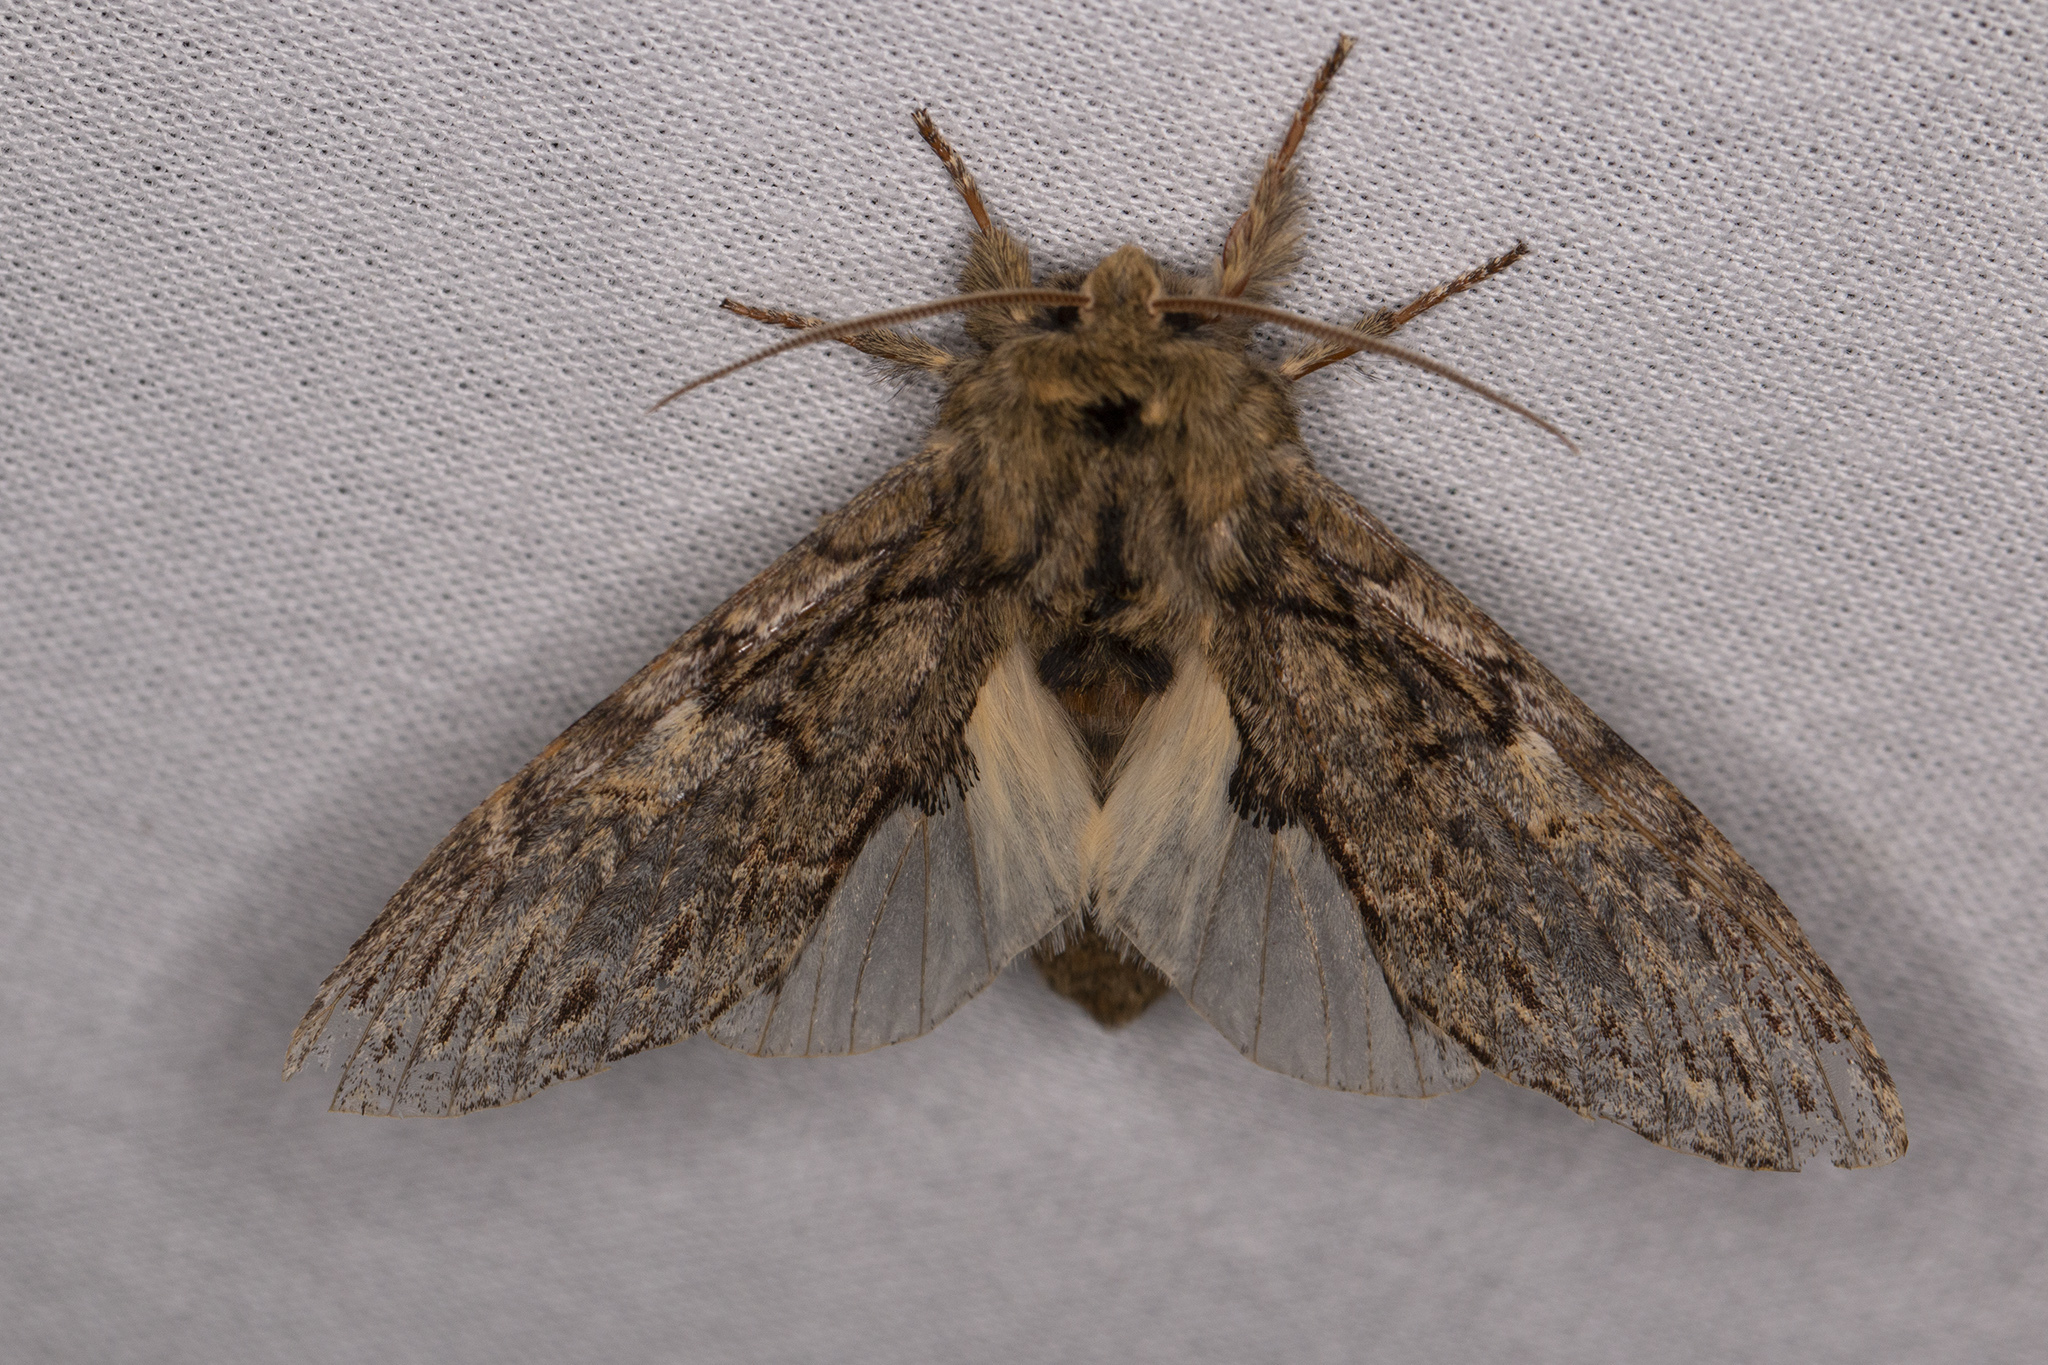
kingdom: Animalia
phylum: Arthropoda
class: Insecta
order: Lepidoptera
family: Notodontidae
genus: Peridea
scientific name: Peridea anceps
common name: Great prominent
